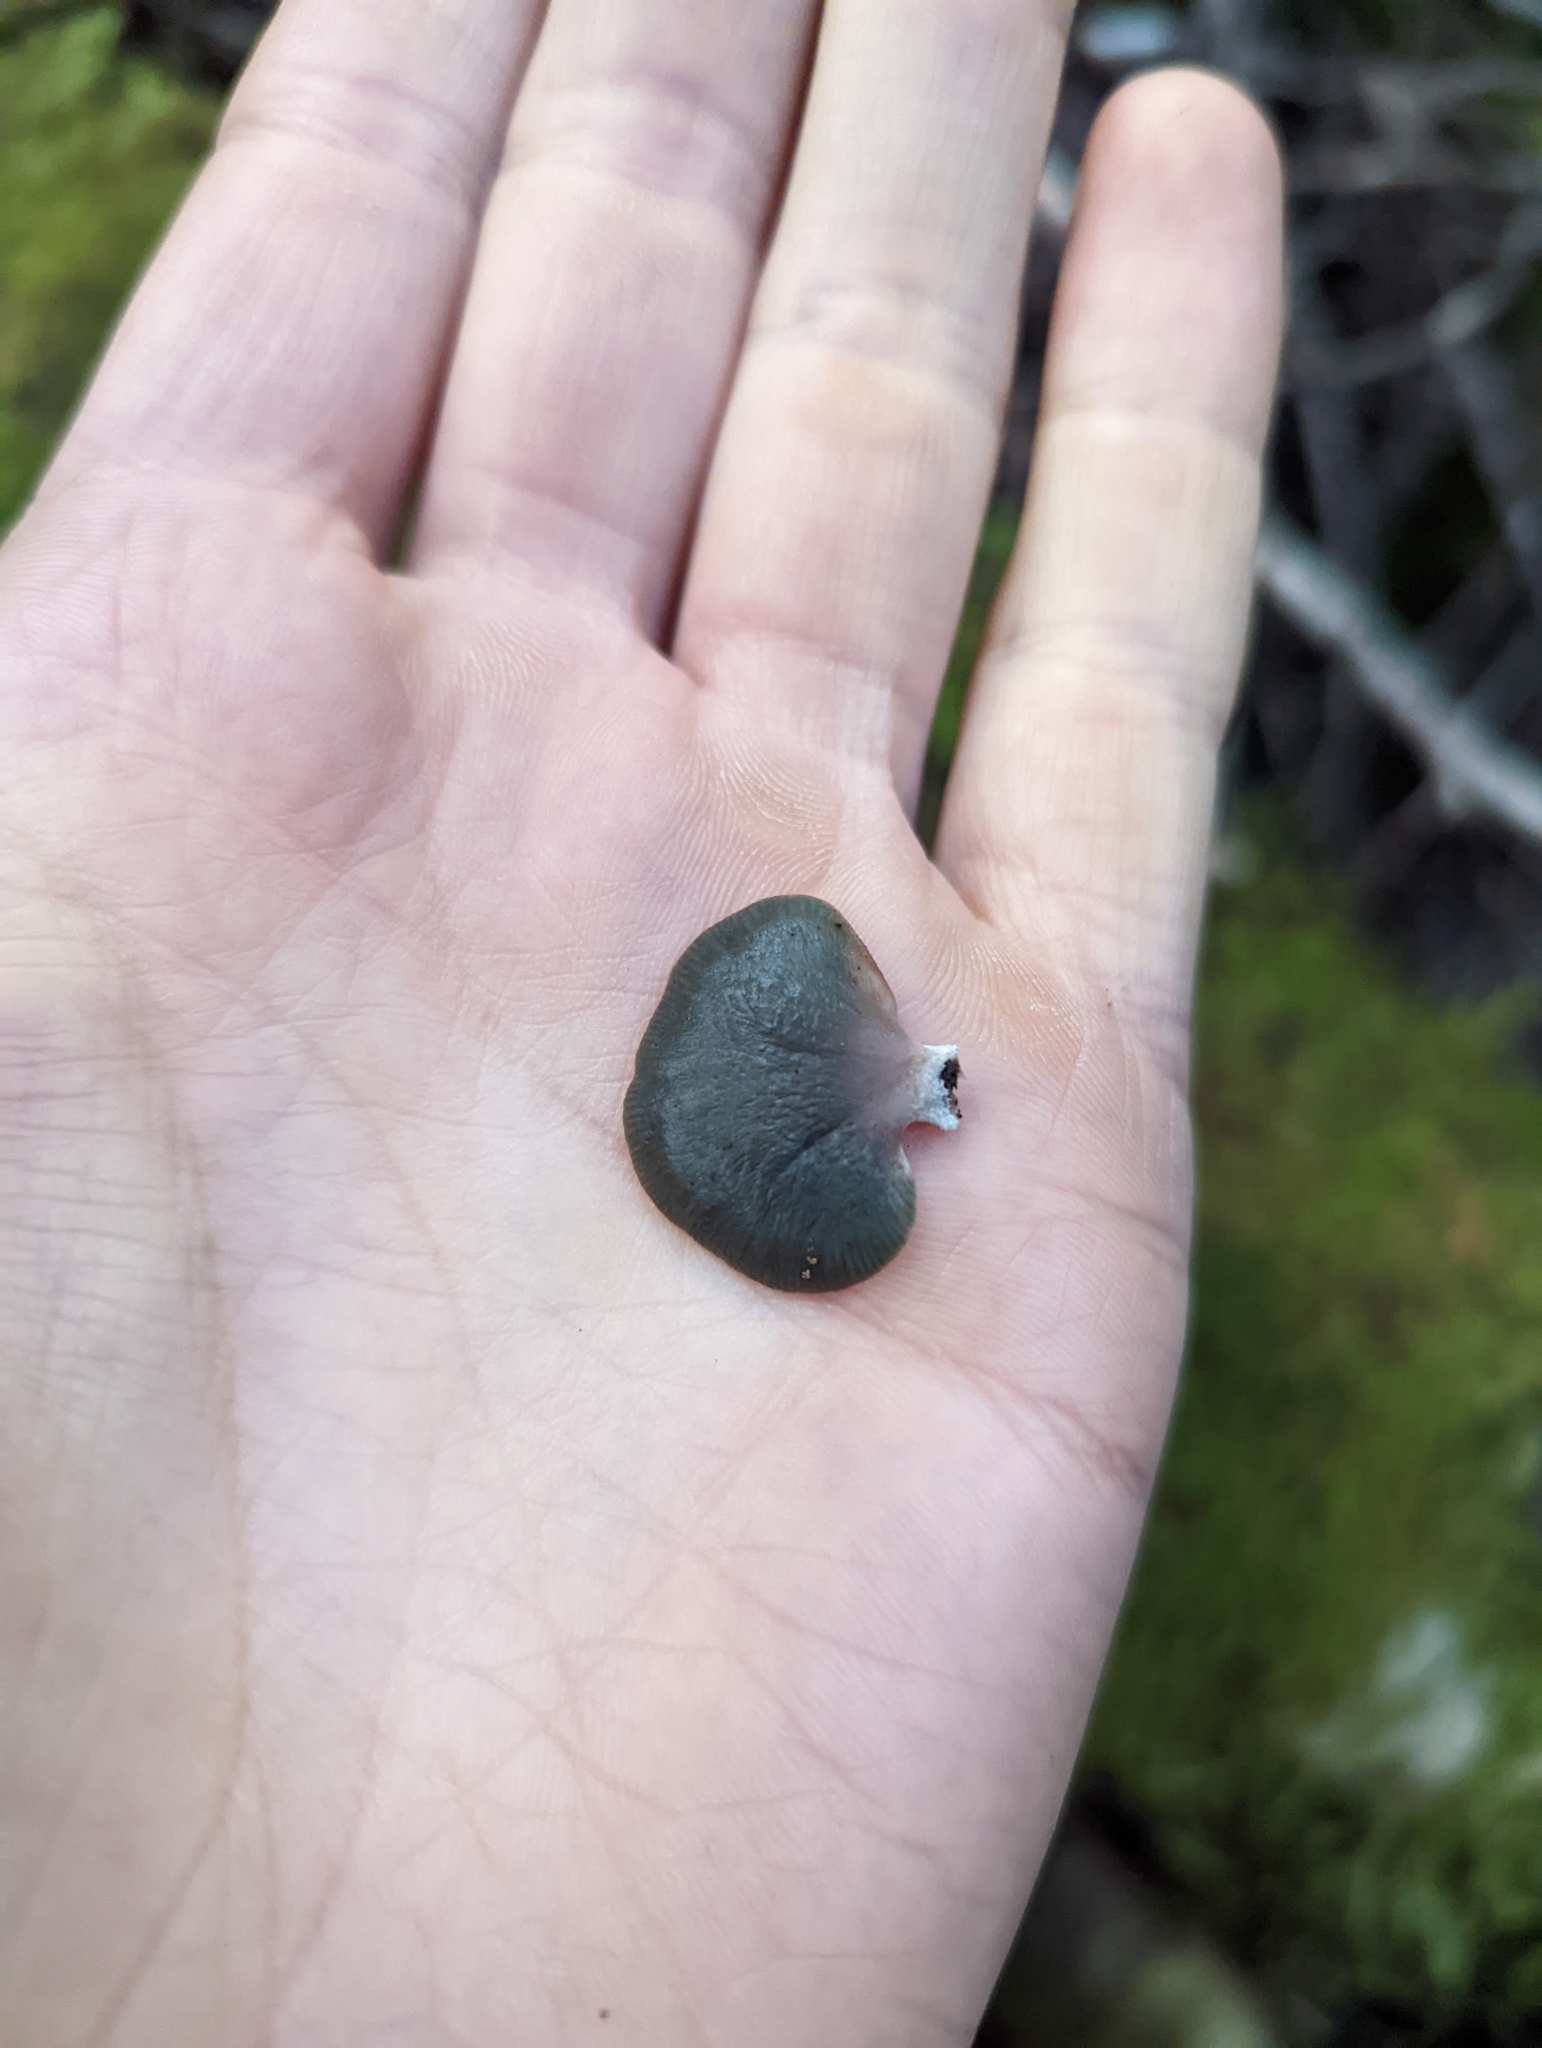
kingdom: Fungi
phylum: Basidiomycota
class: Agaricomycetes
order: Agaricales
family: Mycenaceae
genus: Panellus
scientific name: Panellus longinquus
